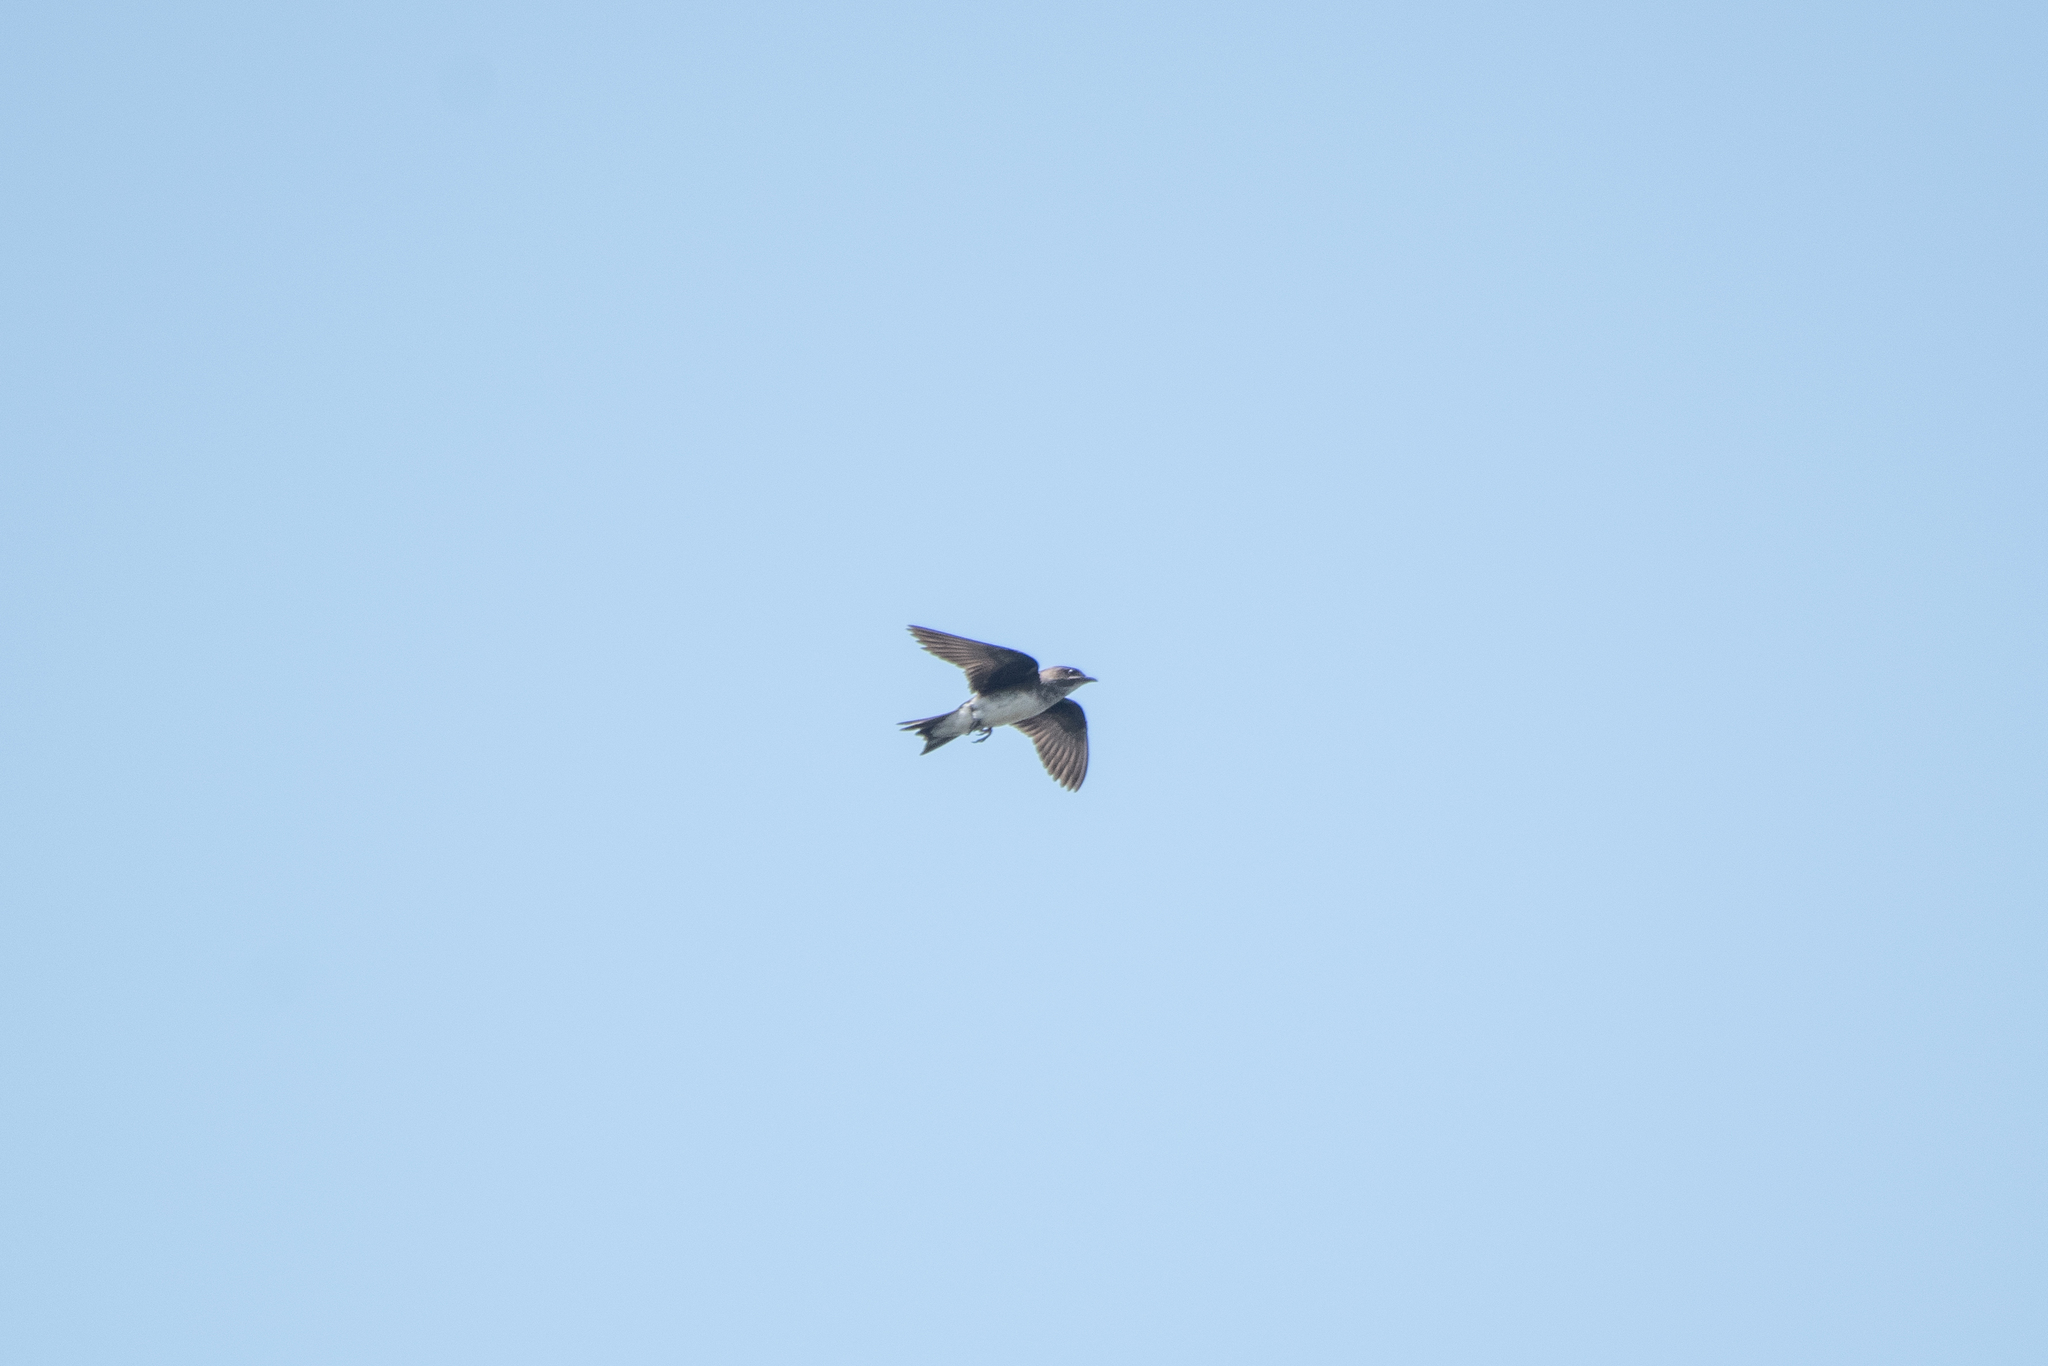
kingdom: Animalia
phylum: Chordata
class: Aves
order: Passeriformes
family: Hirundinidae
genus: Progne
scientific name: Progne chalybea
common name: Grey-breasted martin
